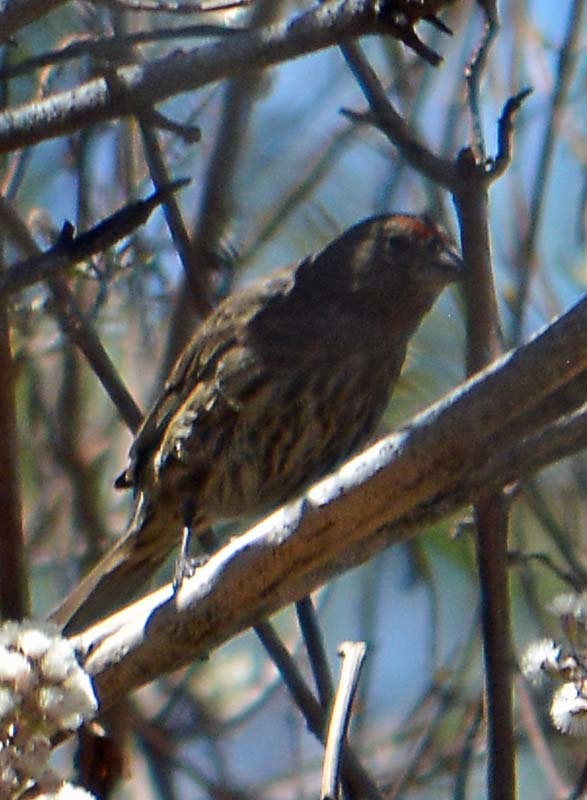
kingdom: Animalia
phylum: Chordata
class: Aves
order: Passeriformes
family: Fringillidae
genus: Haemorhous
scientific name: Haemorhous mexicanus
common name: House finch
